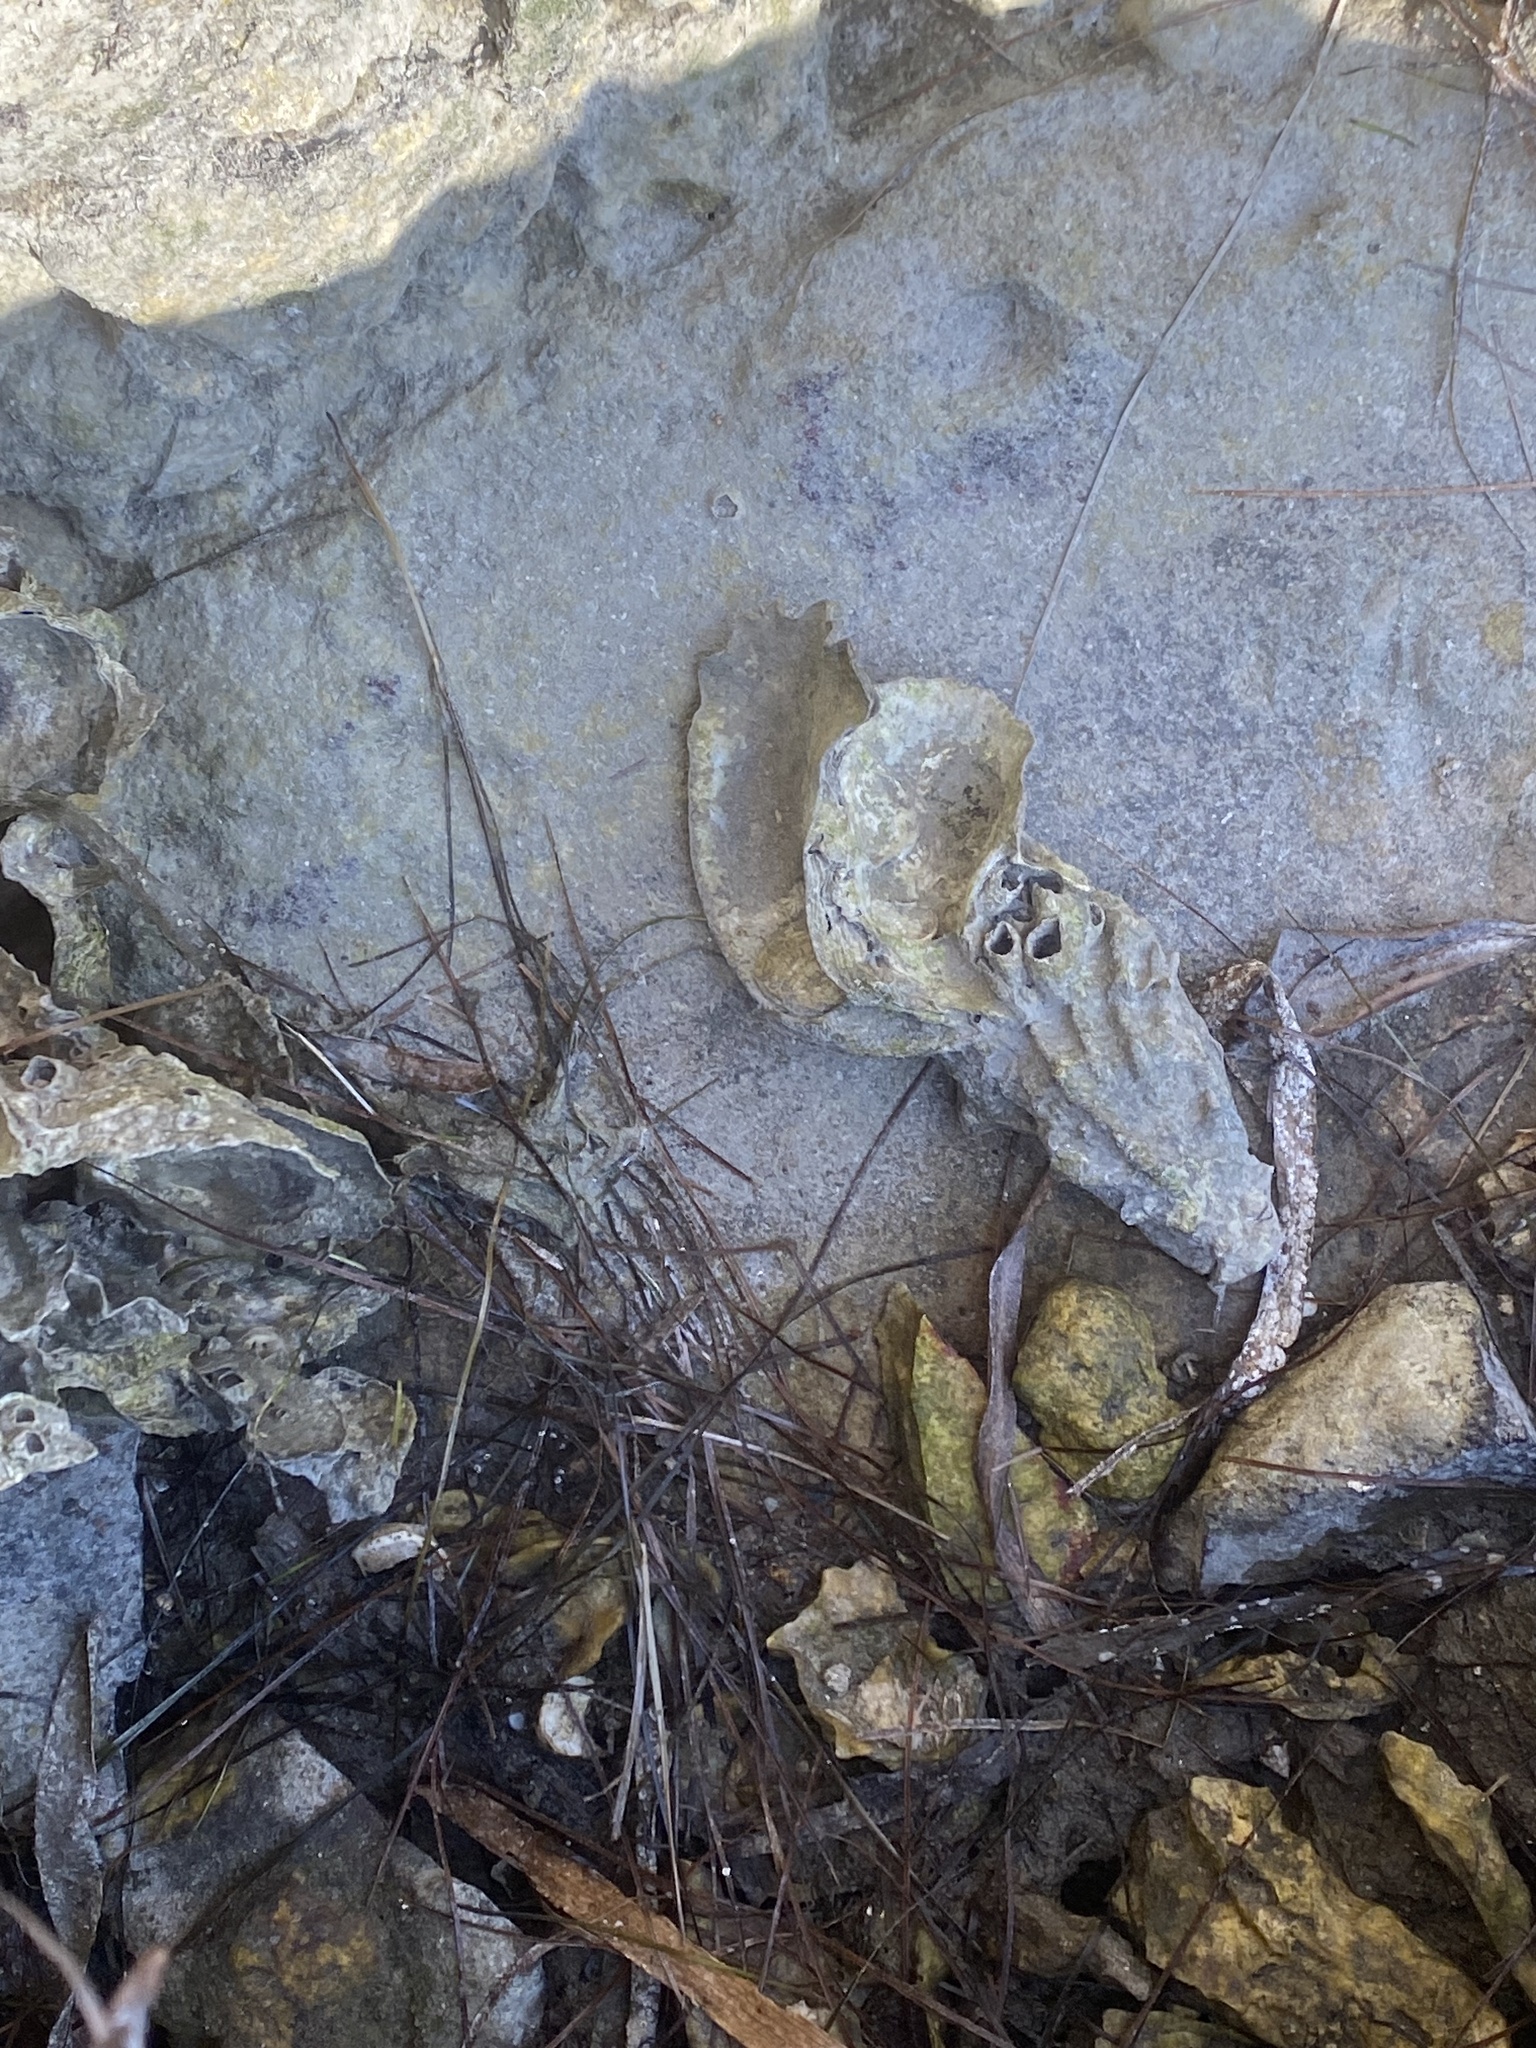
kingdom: Animalia
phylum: Mollusca
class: Bivalvia
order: Ostreida
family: Ostreidae
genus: Crassostrea
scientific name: Crassostrea virginica
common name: American oyster
